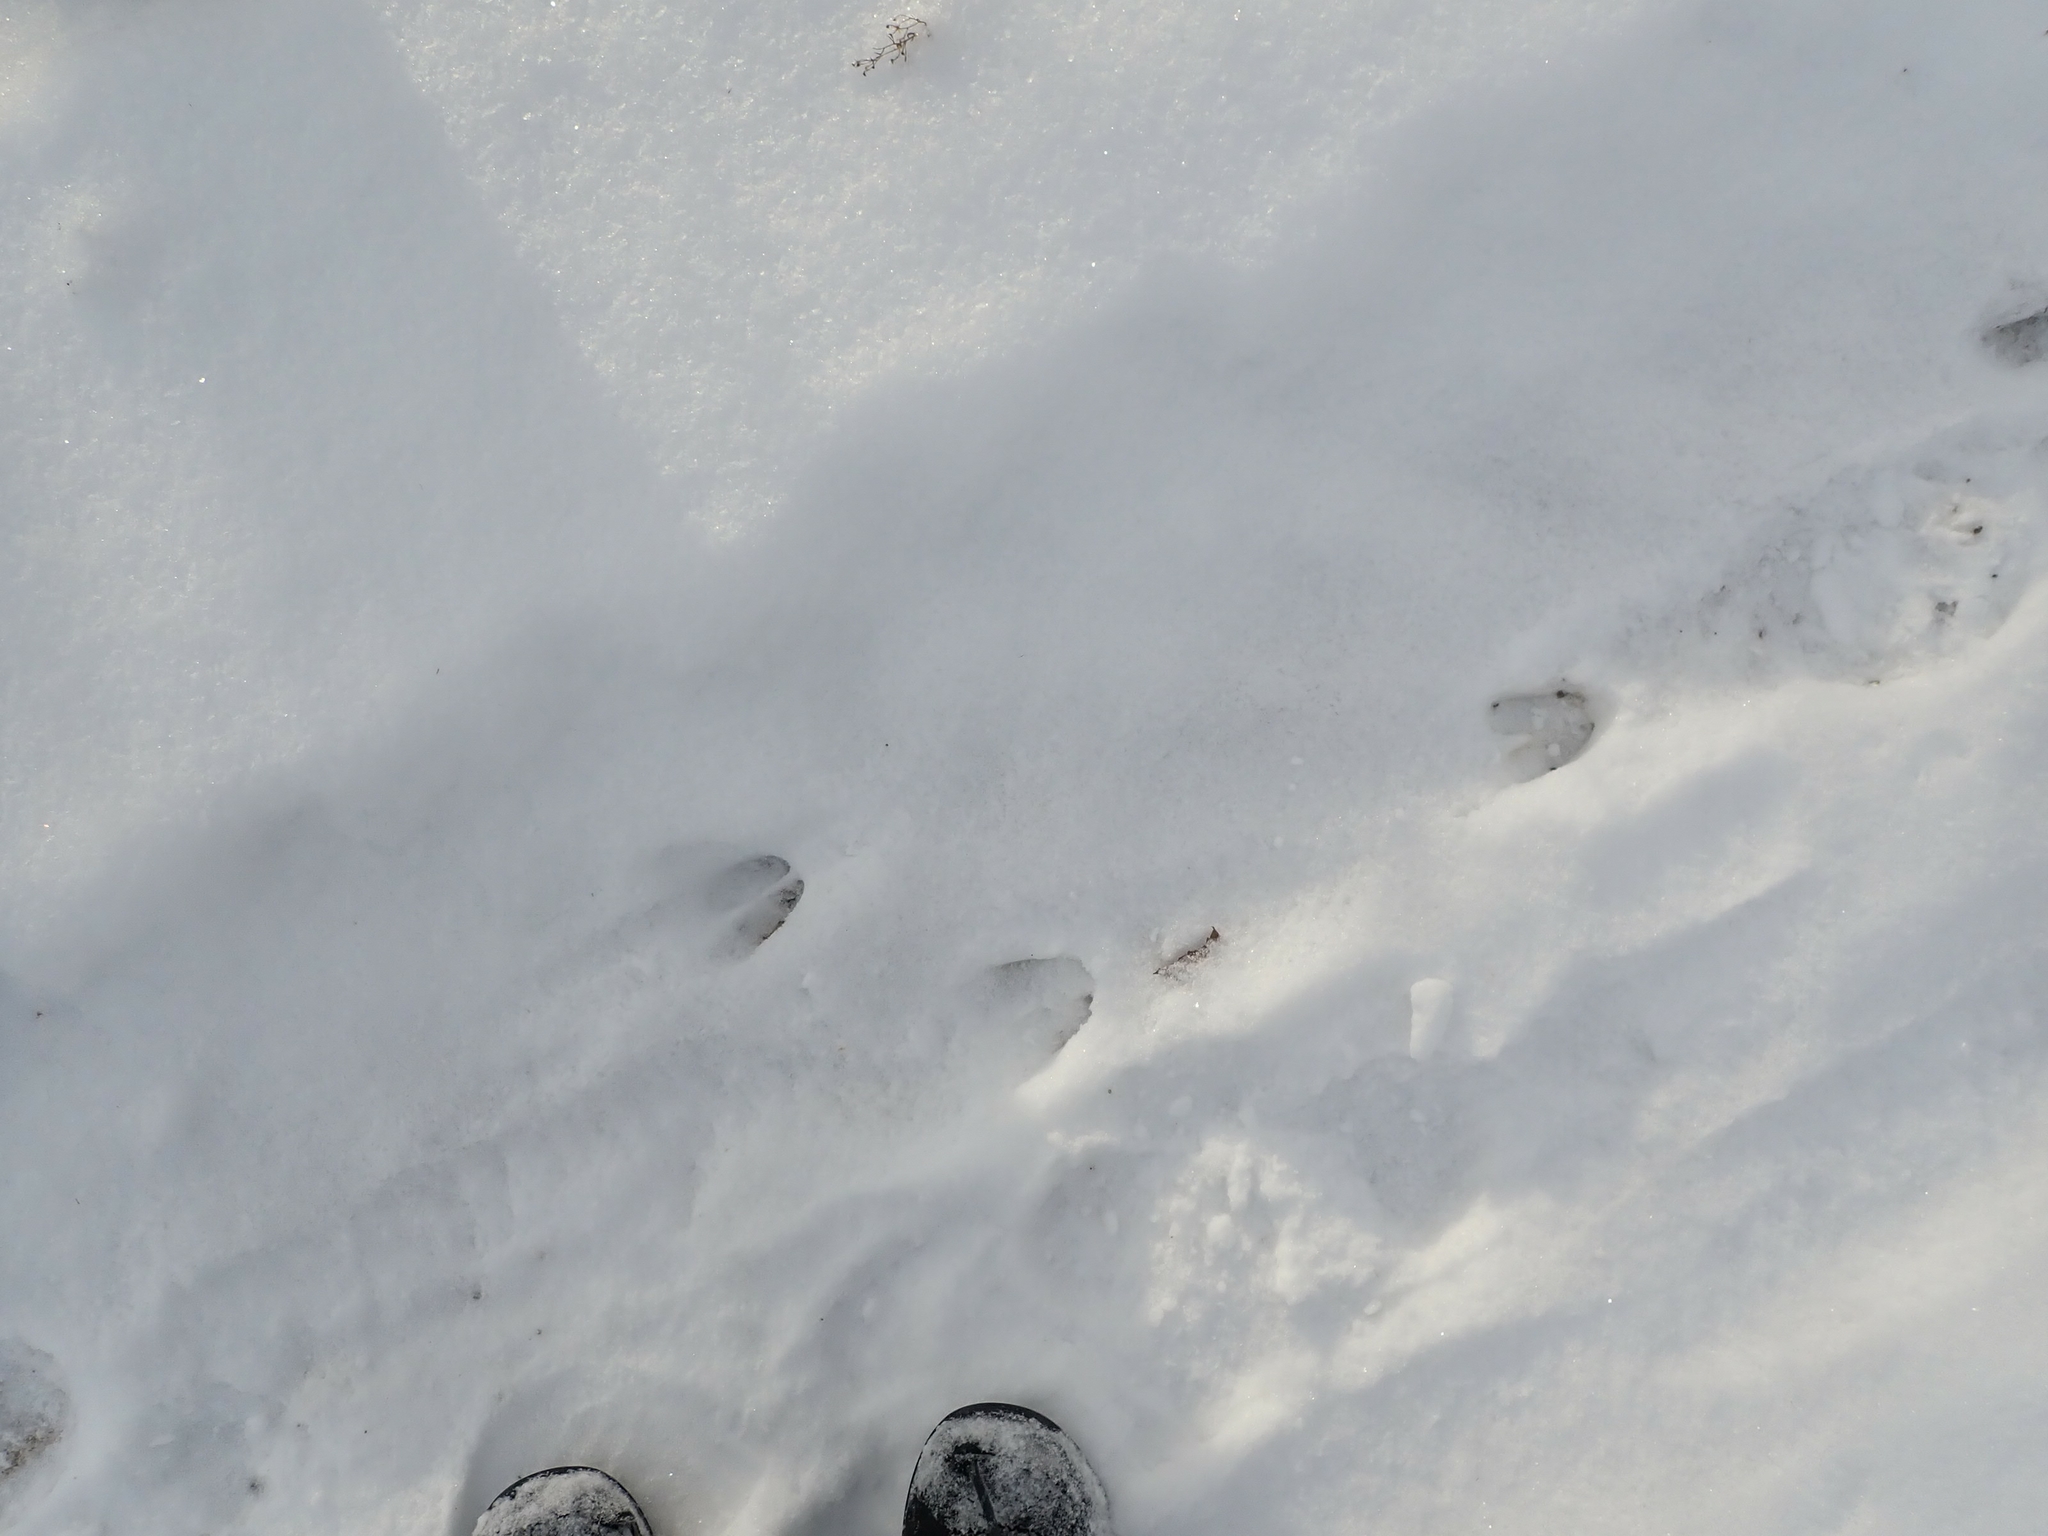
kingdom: Animalia
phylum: Chordata
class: Mammalia
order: Artiodactyla
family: Cervidae
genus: Odocoileus
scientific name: Odocoileus virginianus
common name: White-tailed deer
